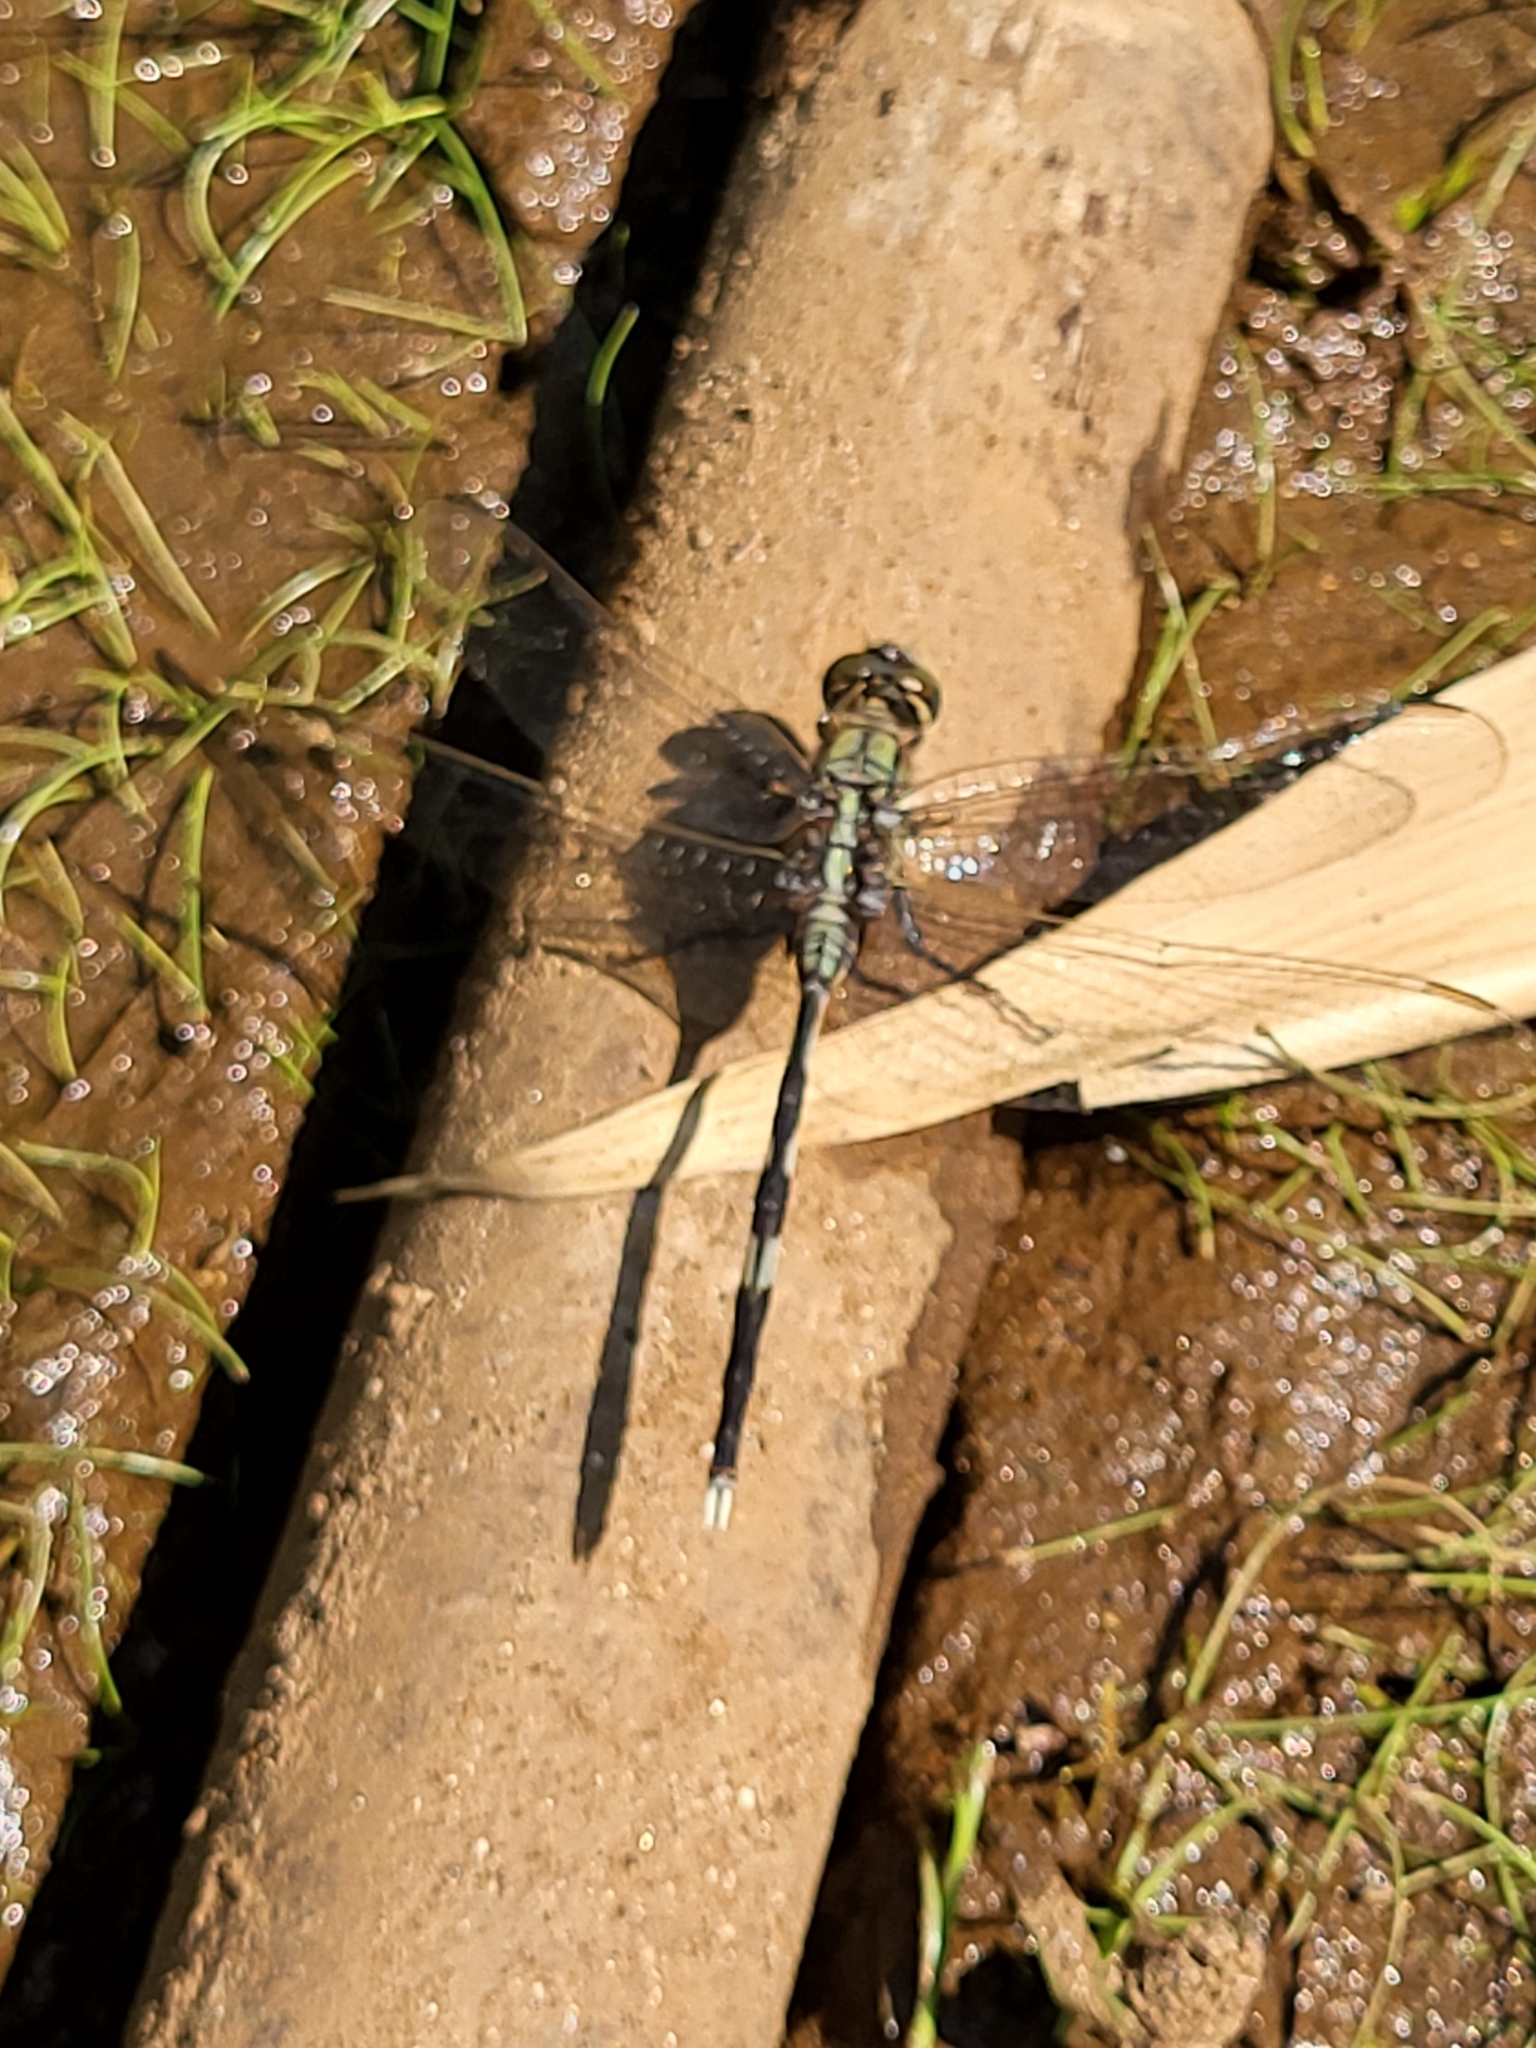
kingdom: Animalia
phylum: Arthropoda
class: Insecta
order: Odonata
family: Libellulidae
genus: Orthetrum
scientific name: Orthetrum sabina
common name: Slender skimmer
